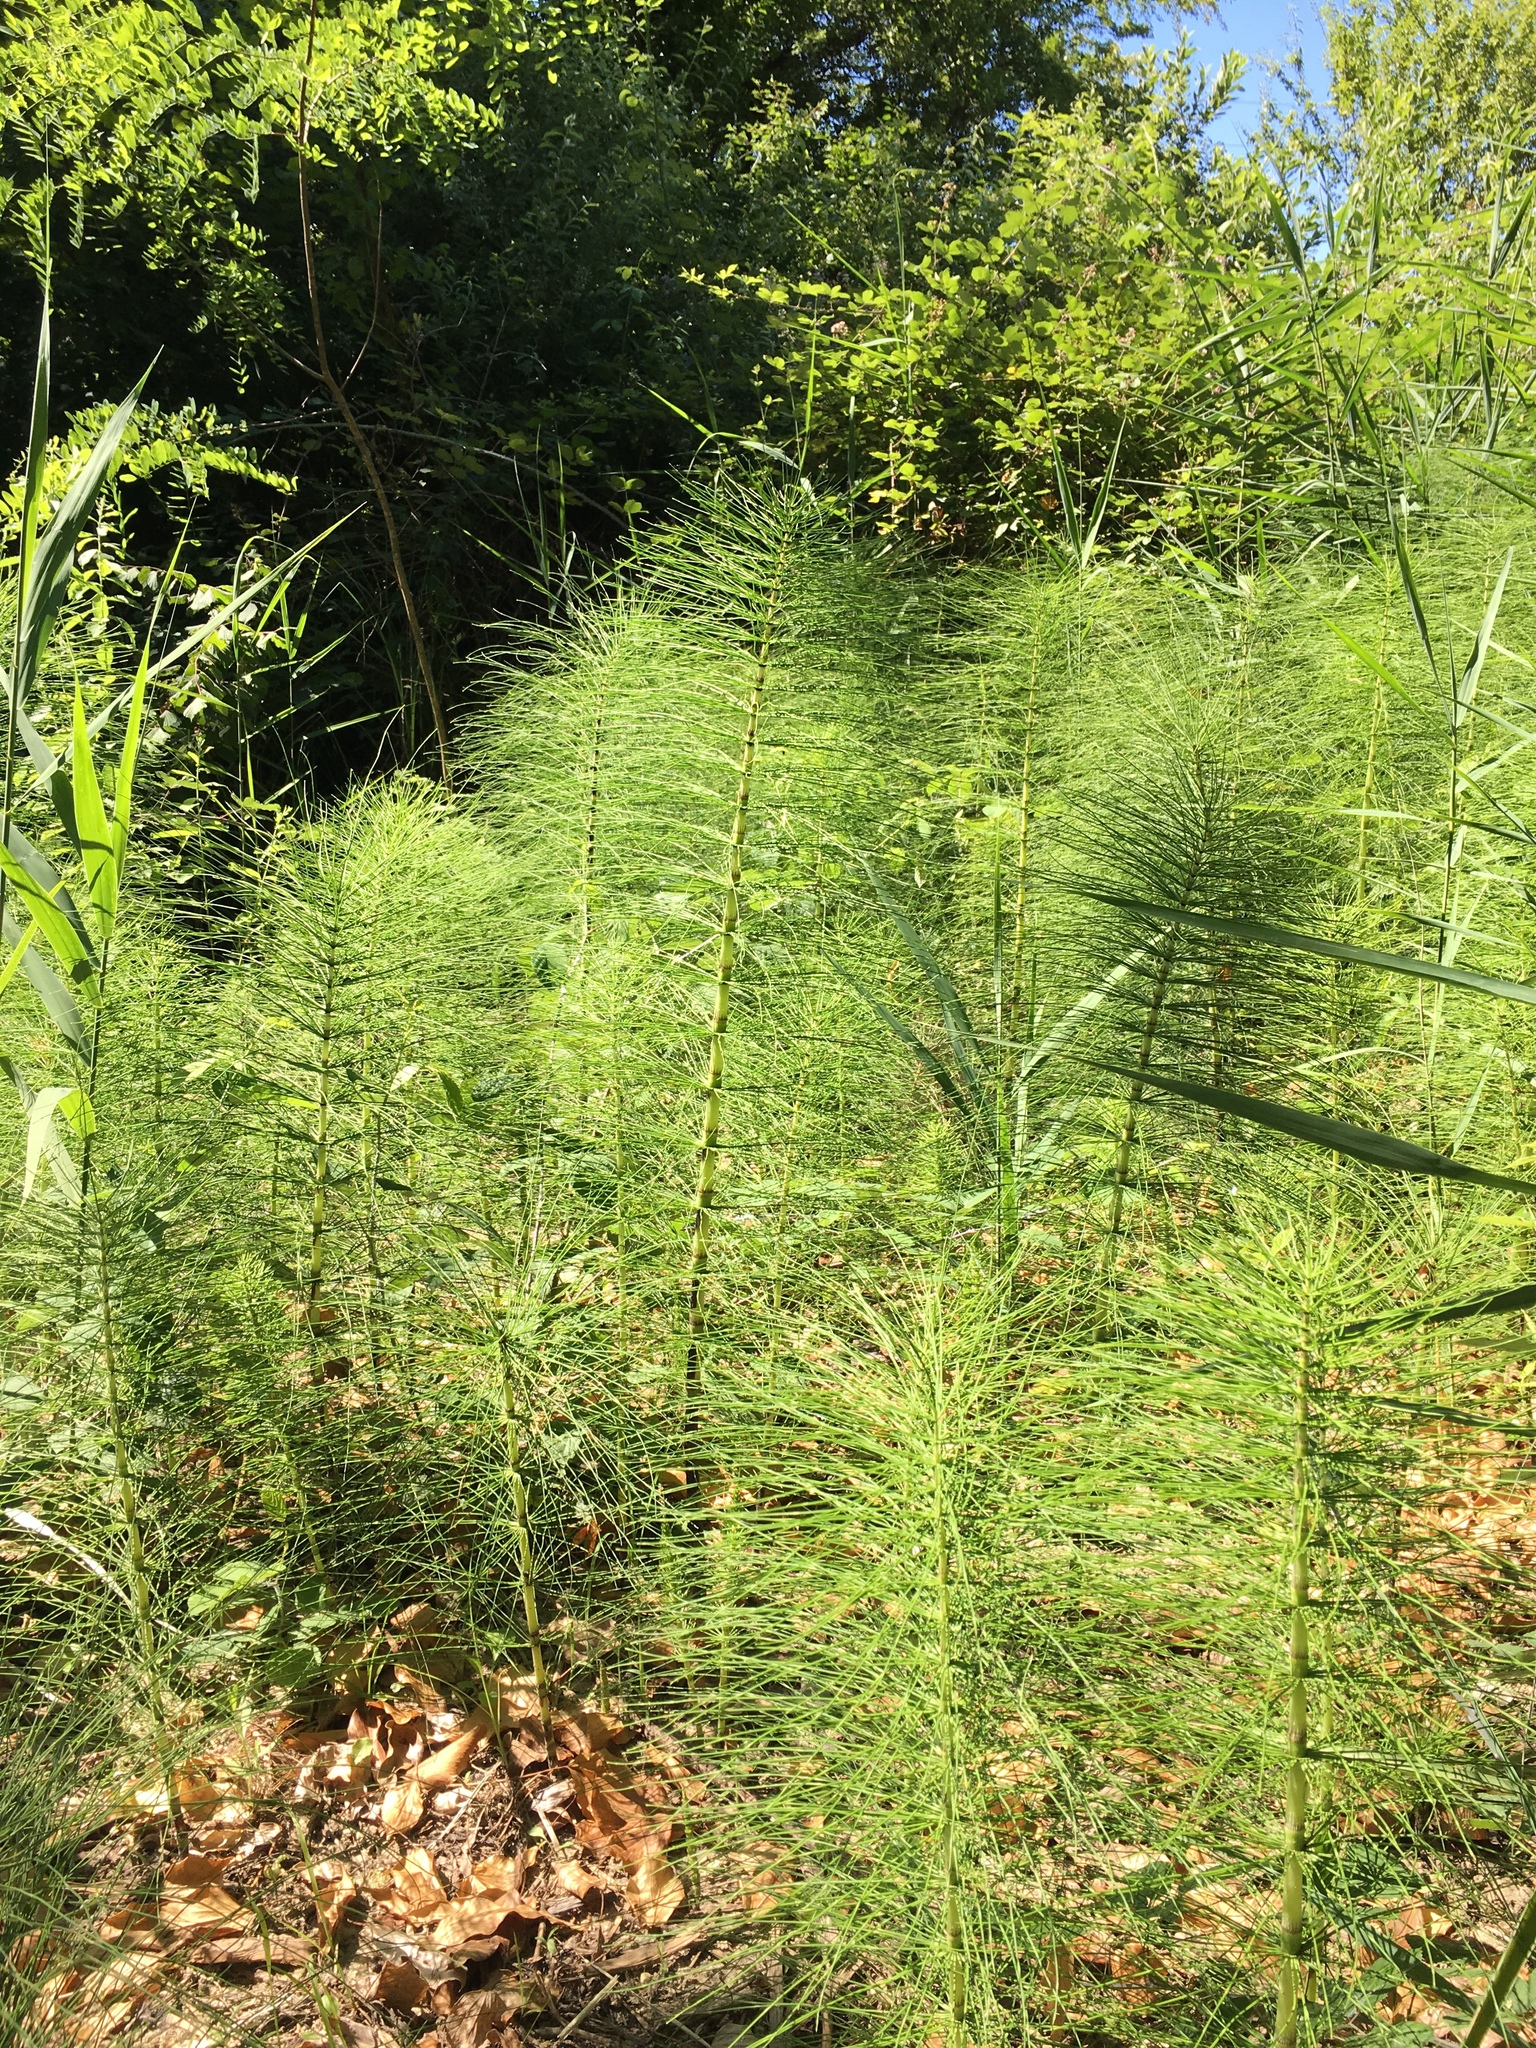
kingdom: Plantae
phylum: Tracheophyta
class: Polypodiopsida
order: Equisetales
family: Equisetaceae
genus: Equisetum
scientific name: Equisetum telmateia
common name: Great horsetail
